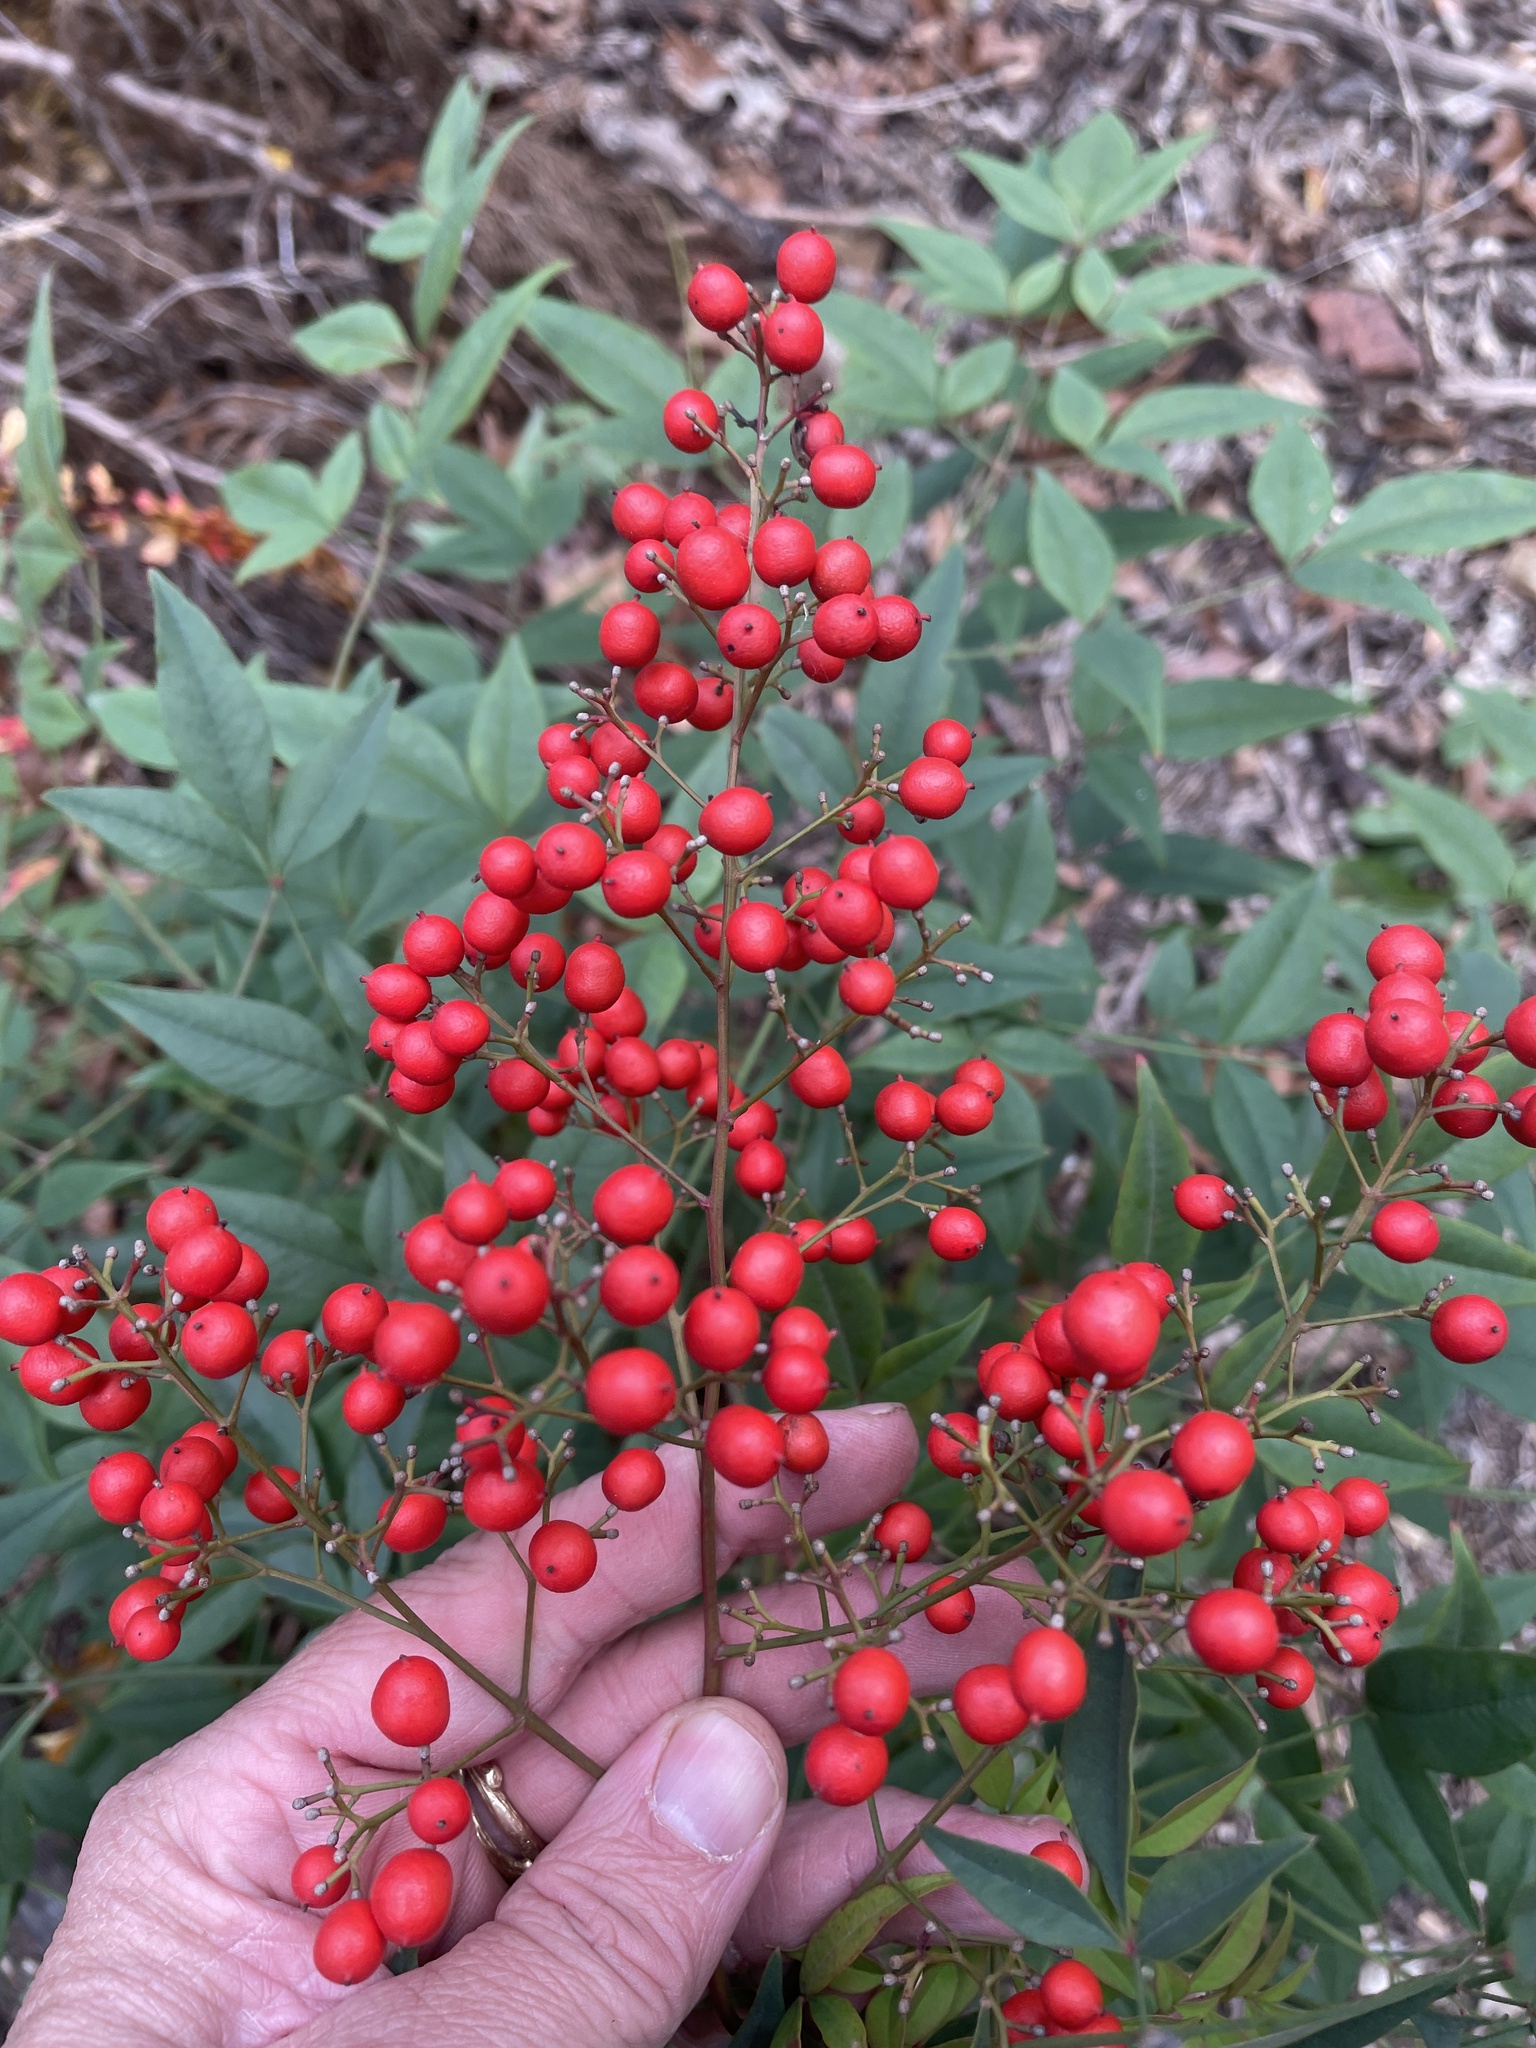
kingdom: Plantae
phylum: Tracheophyta
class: Magnoliopsida
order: Ranunculales
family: Berberidaceae
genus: Nandina
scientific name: Nandina domestica
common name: Sacred bamboo
